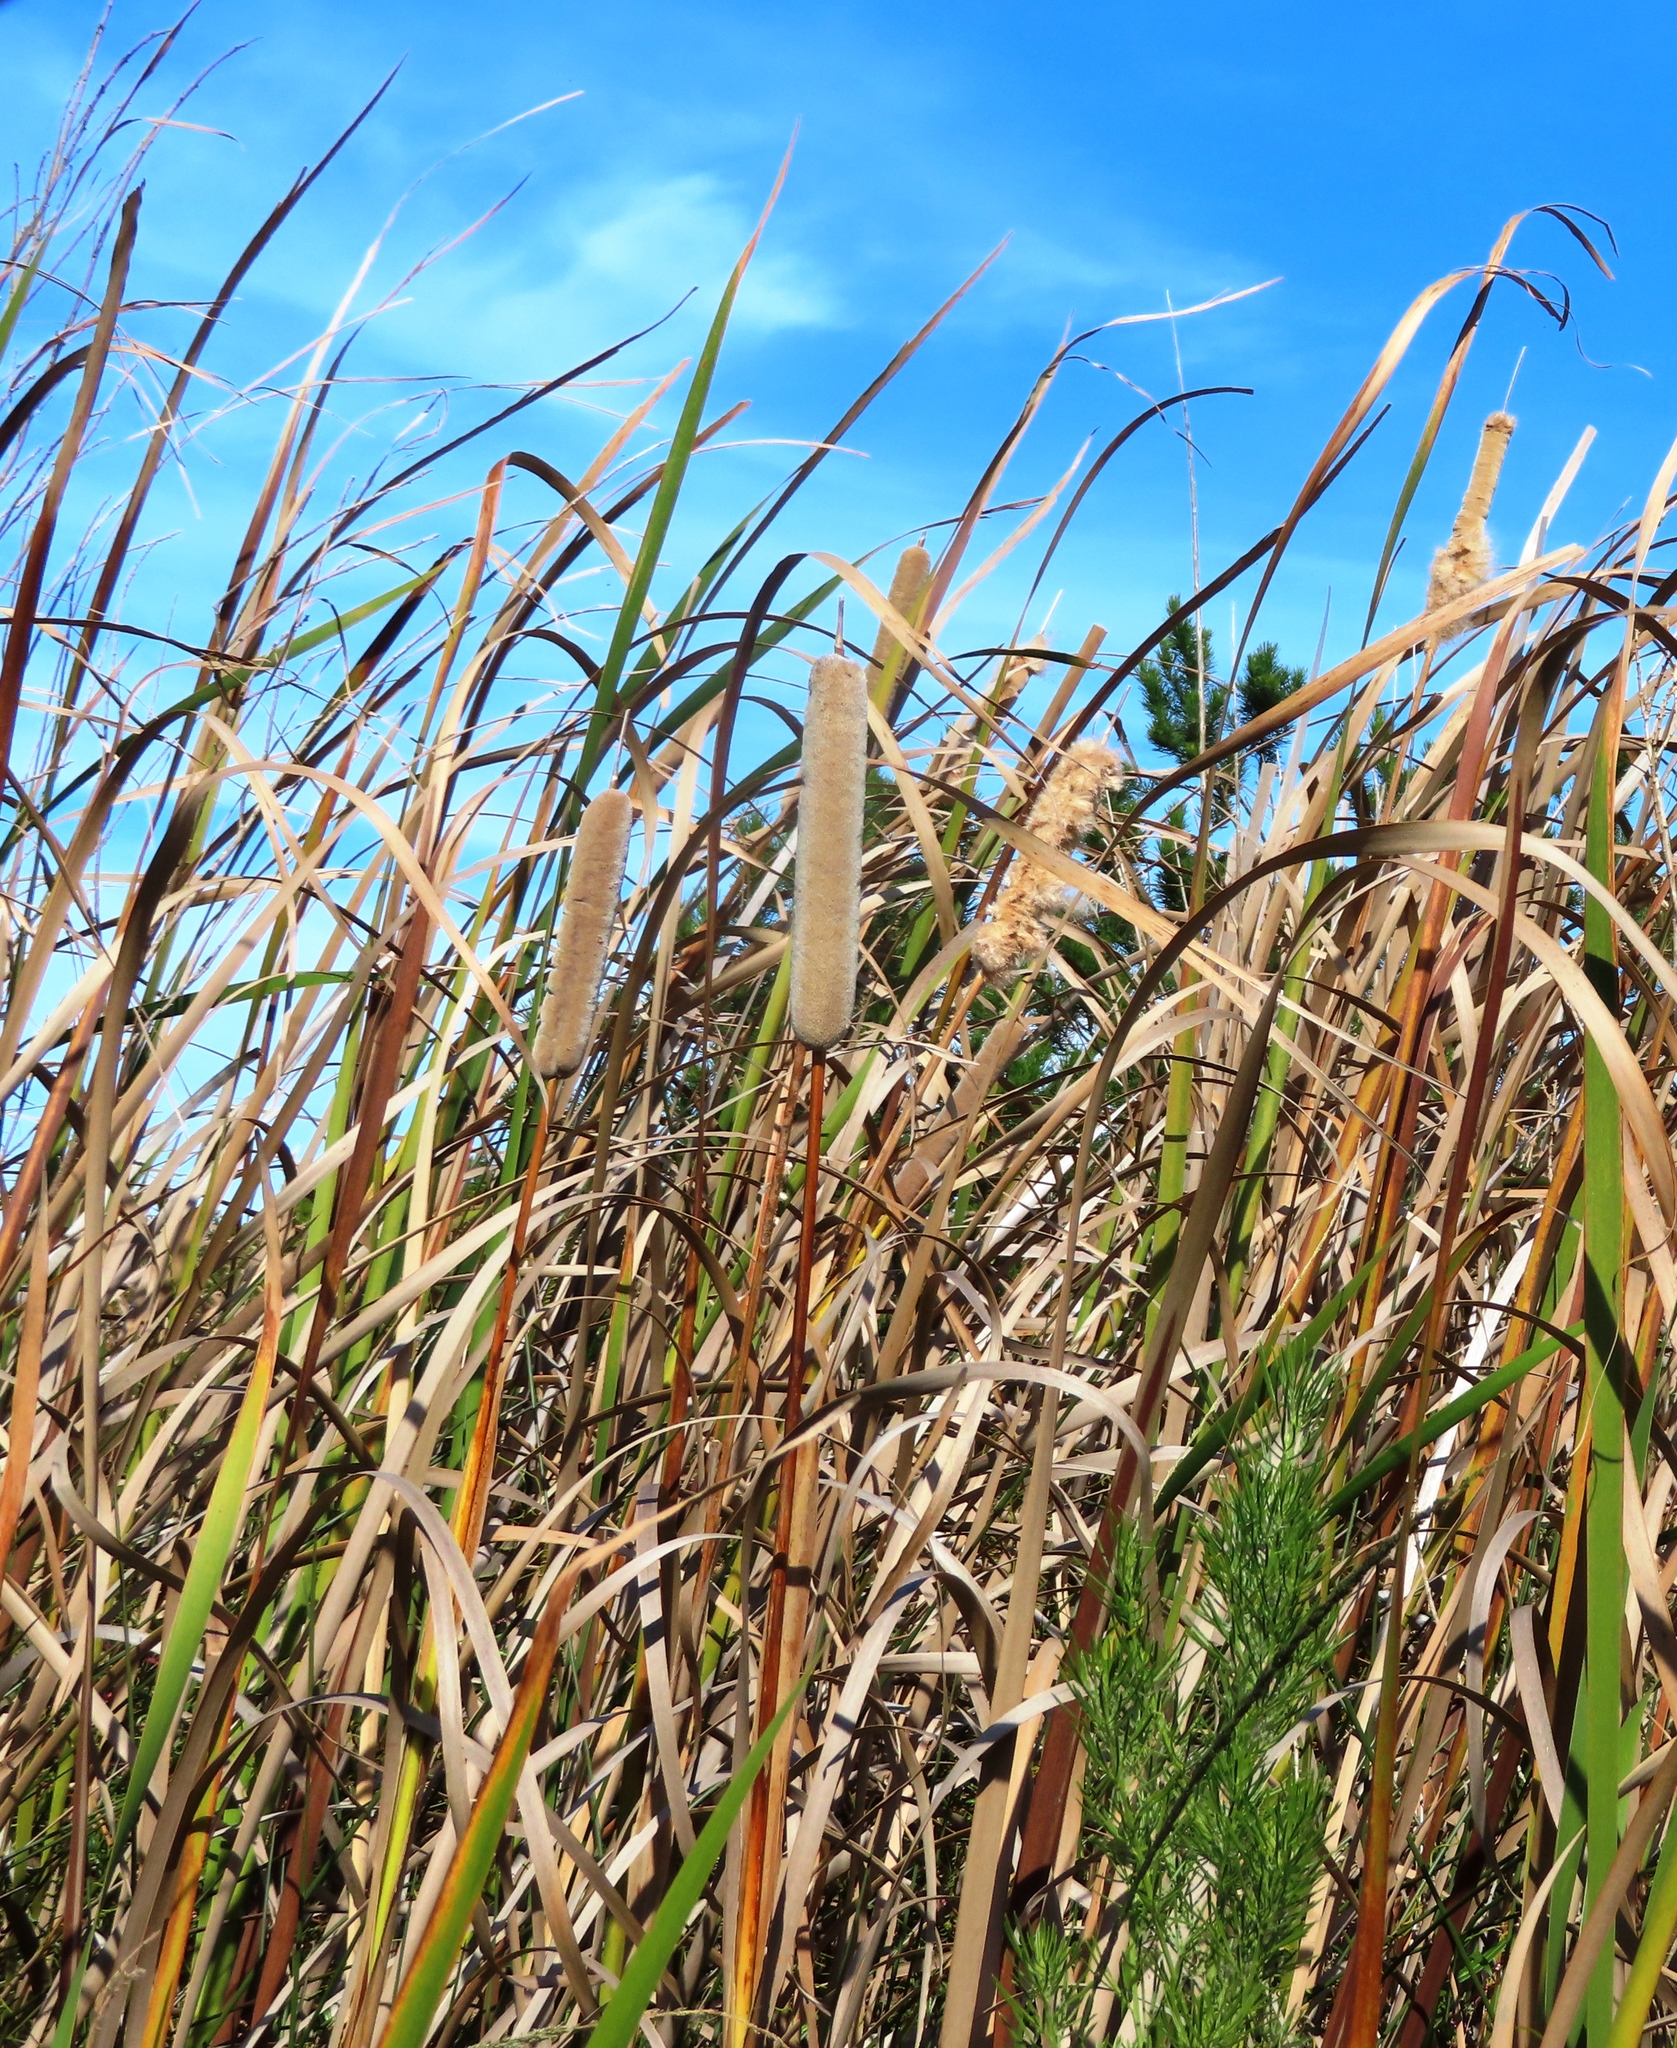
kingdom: Plantae
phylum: Tracheophyta
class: Liliopsida
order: Poales
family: Typhaceae
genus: Typha
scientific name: Typha capensis
